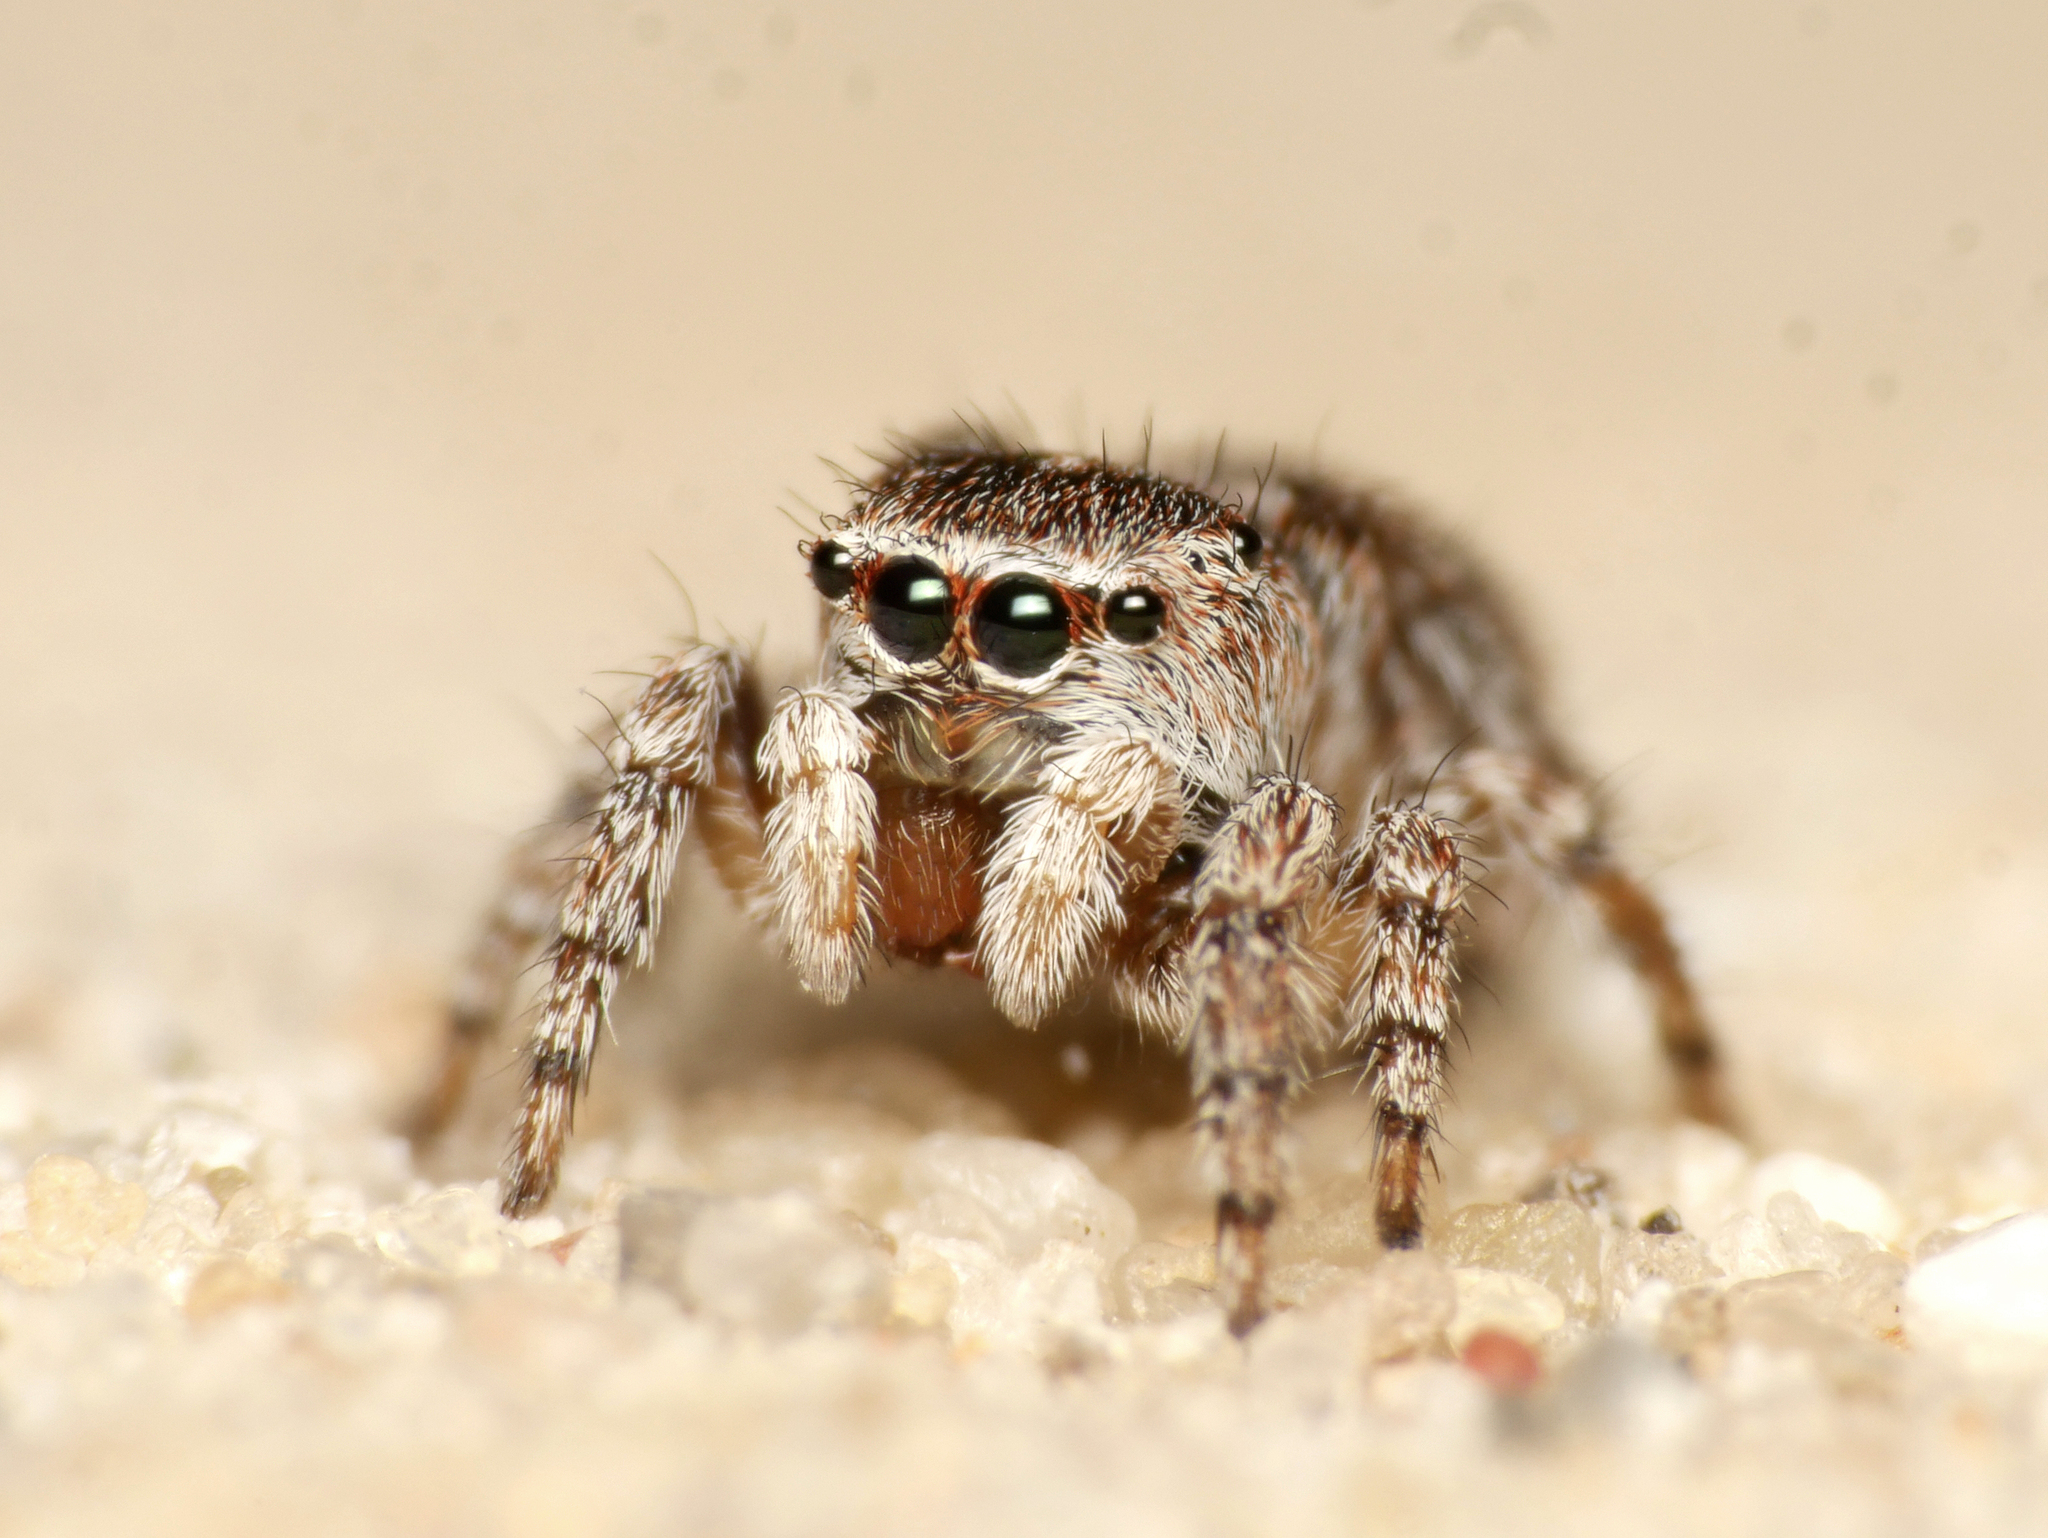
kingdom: Animalia
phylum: Arthropoda
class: Arachnida
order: Araneae
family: Salticidae
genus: Attulus
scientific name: Attulus saltator
